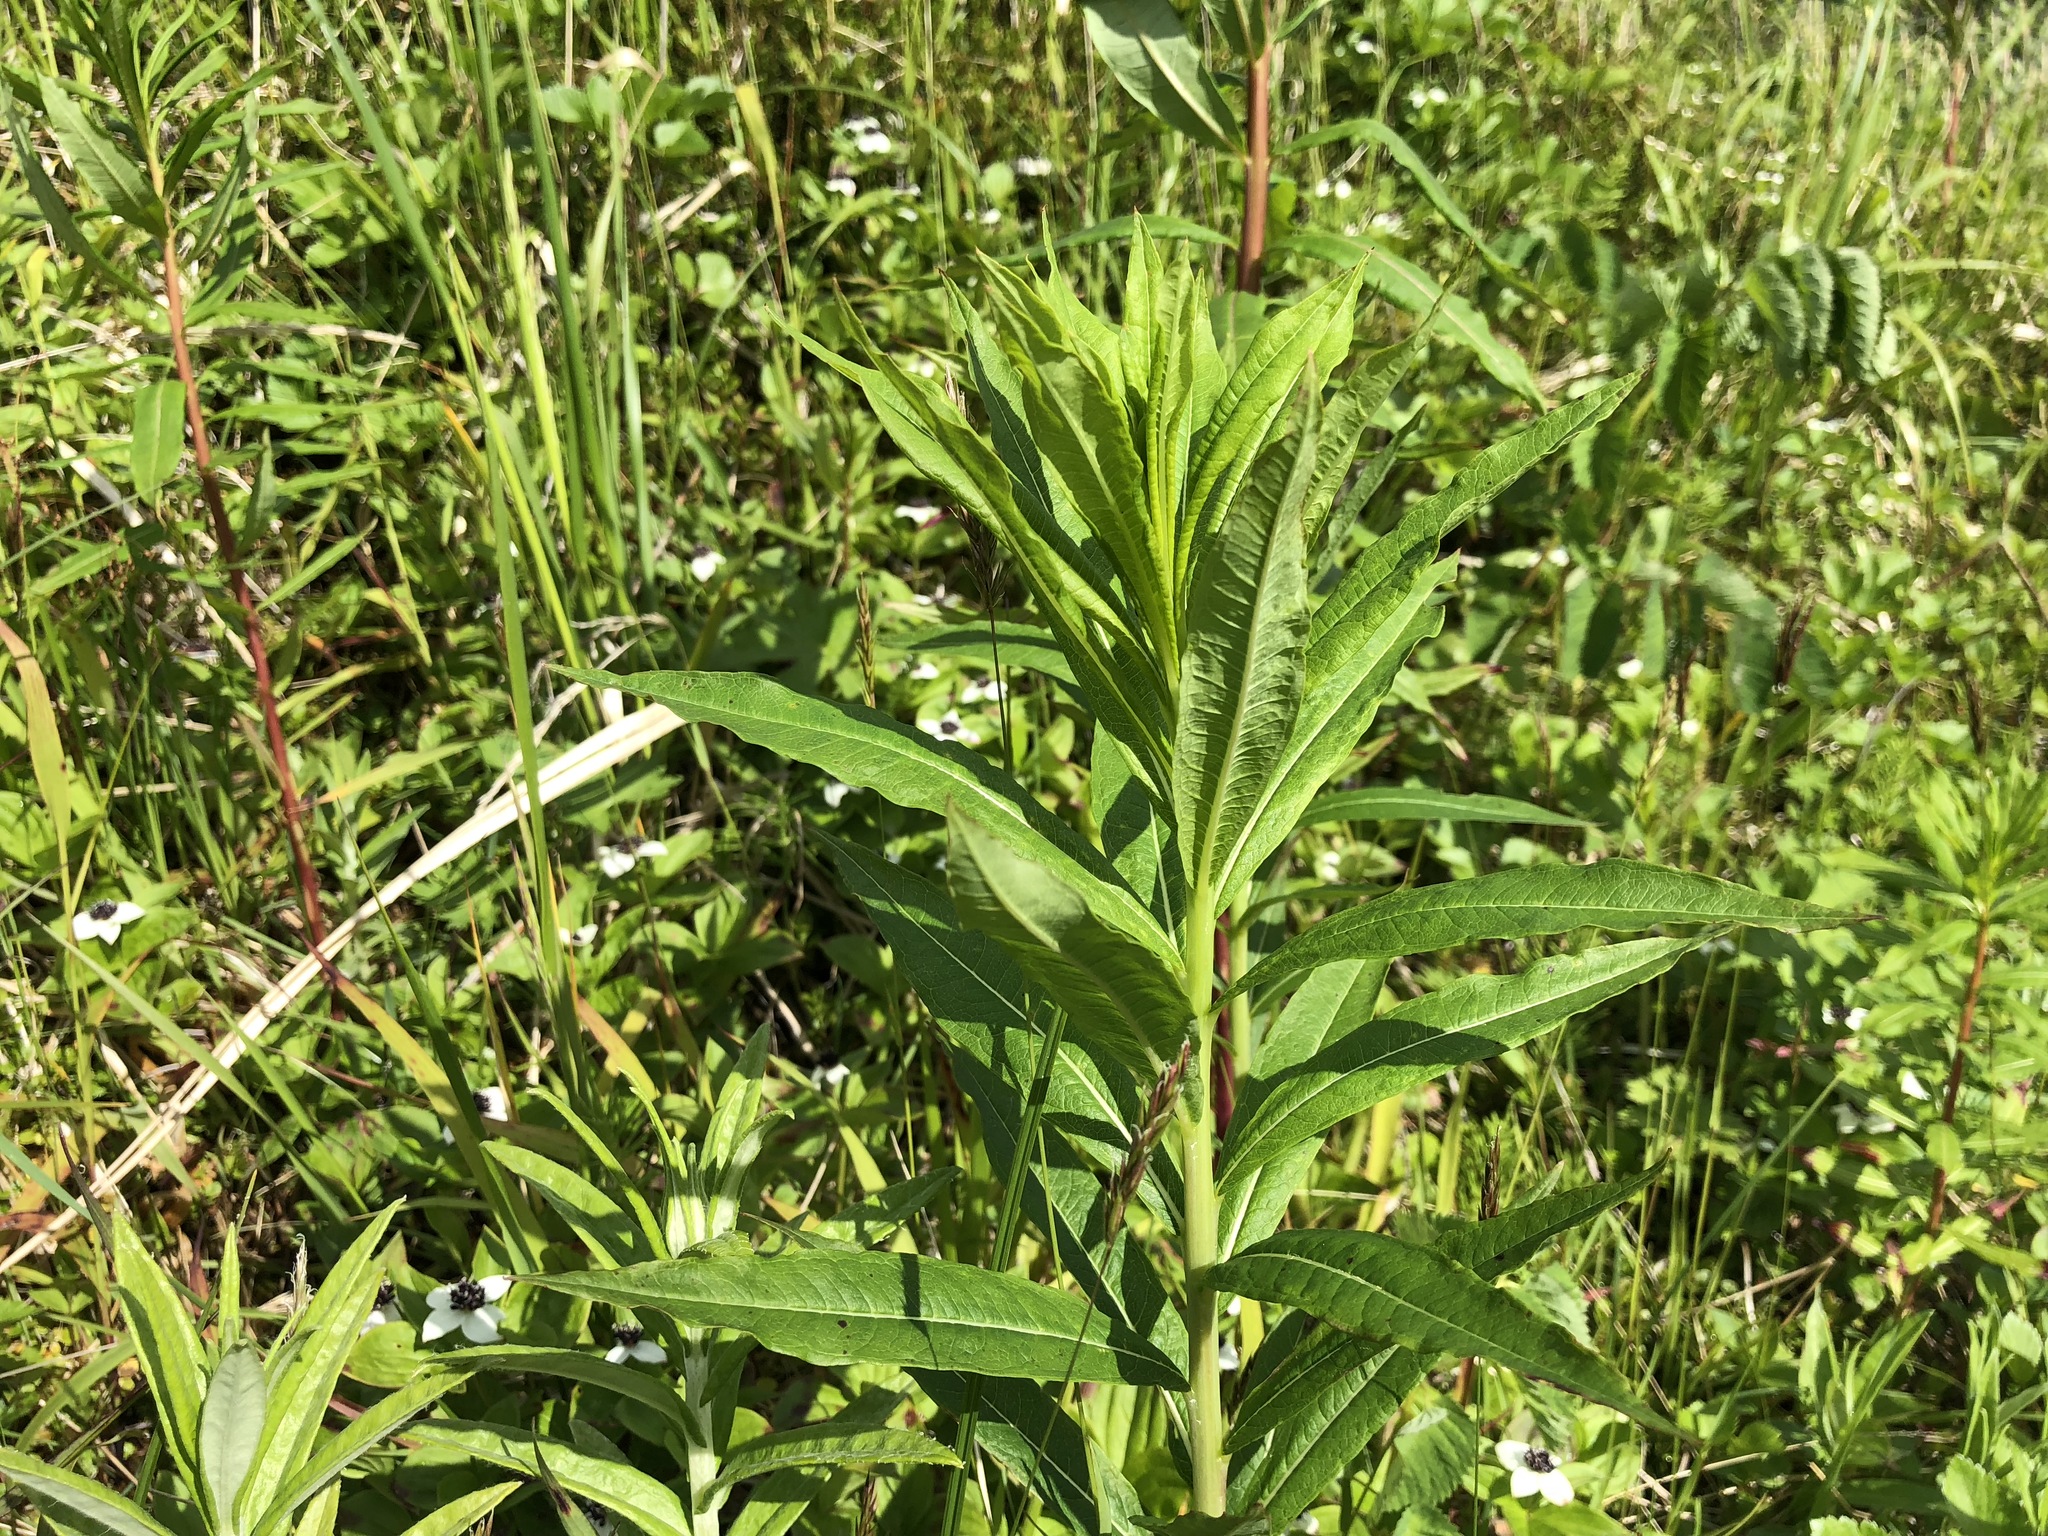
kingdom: Plantae
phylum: Tracheophyta
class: Magnoliopsida
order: Myrtales
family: Onagraceae
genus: Chamaenerion
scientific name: Chamaenerion angustifolium
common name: Fireweed
